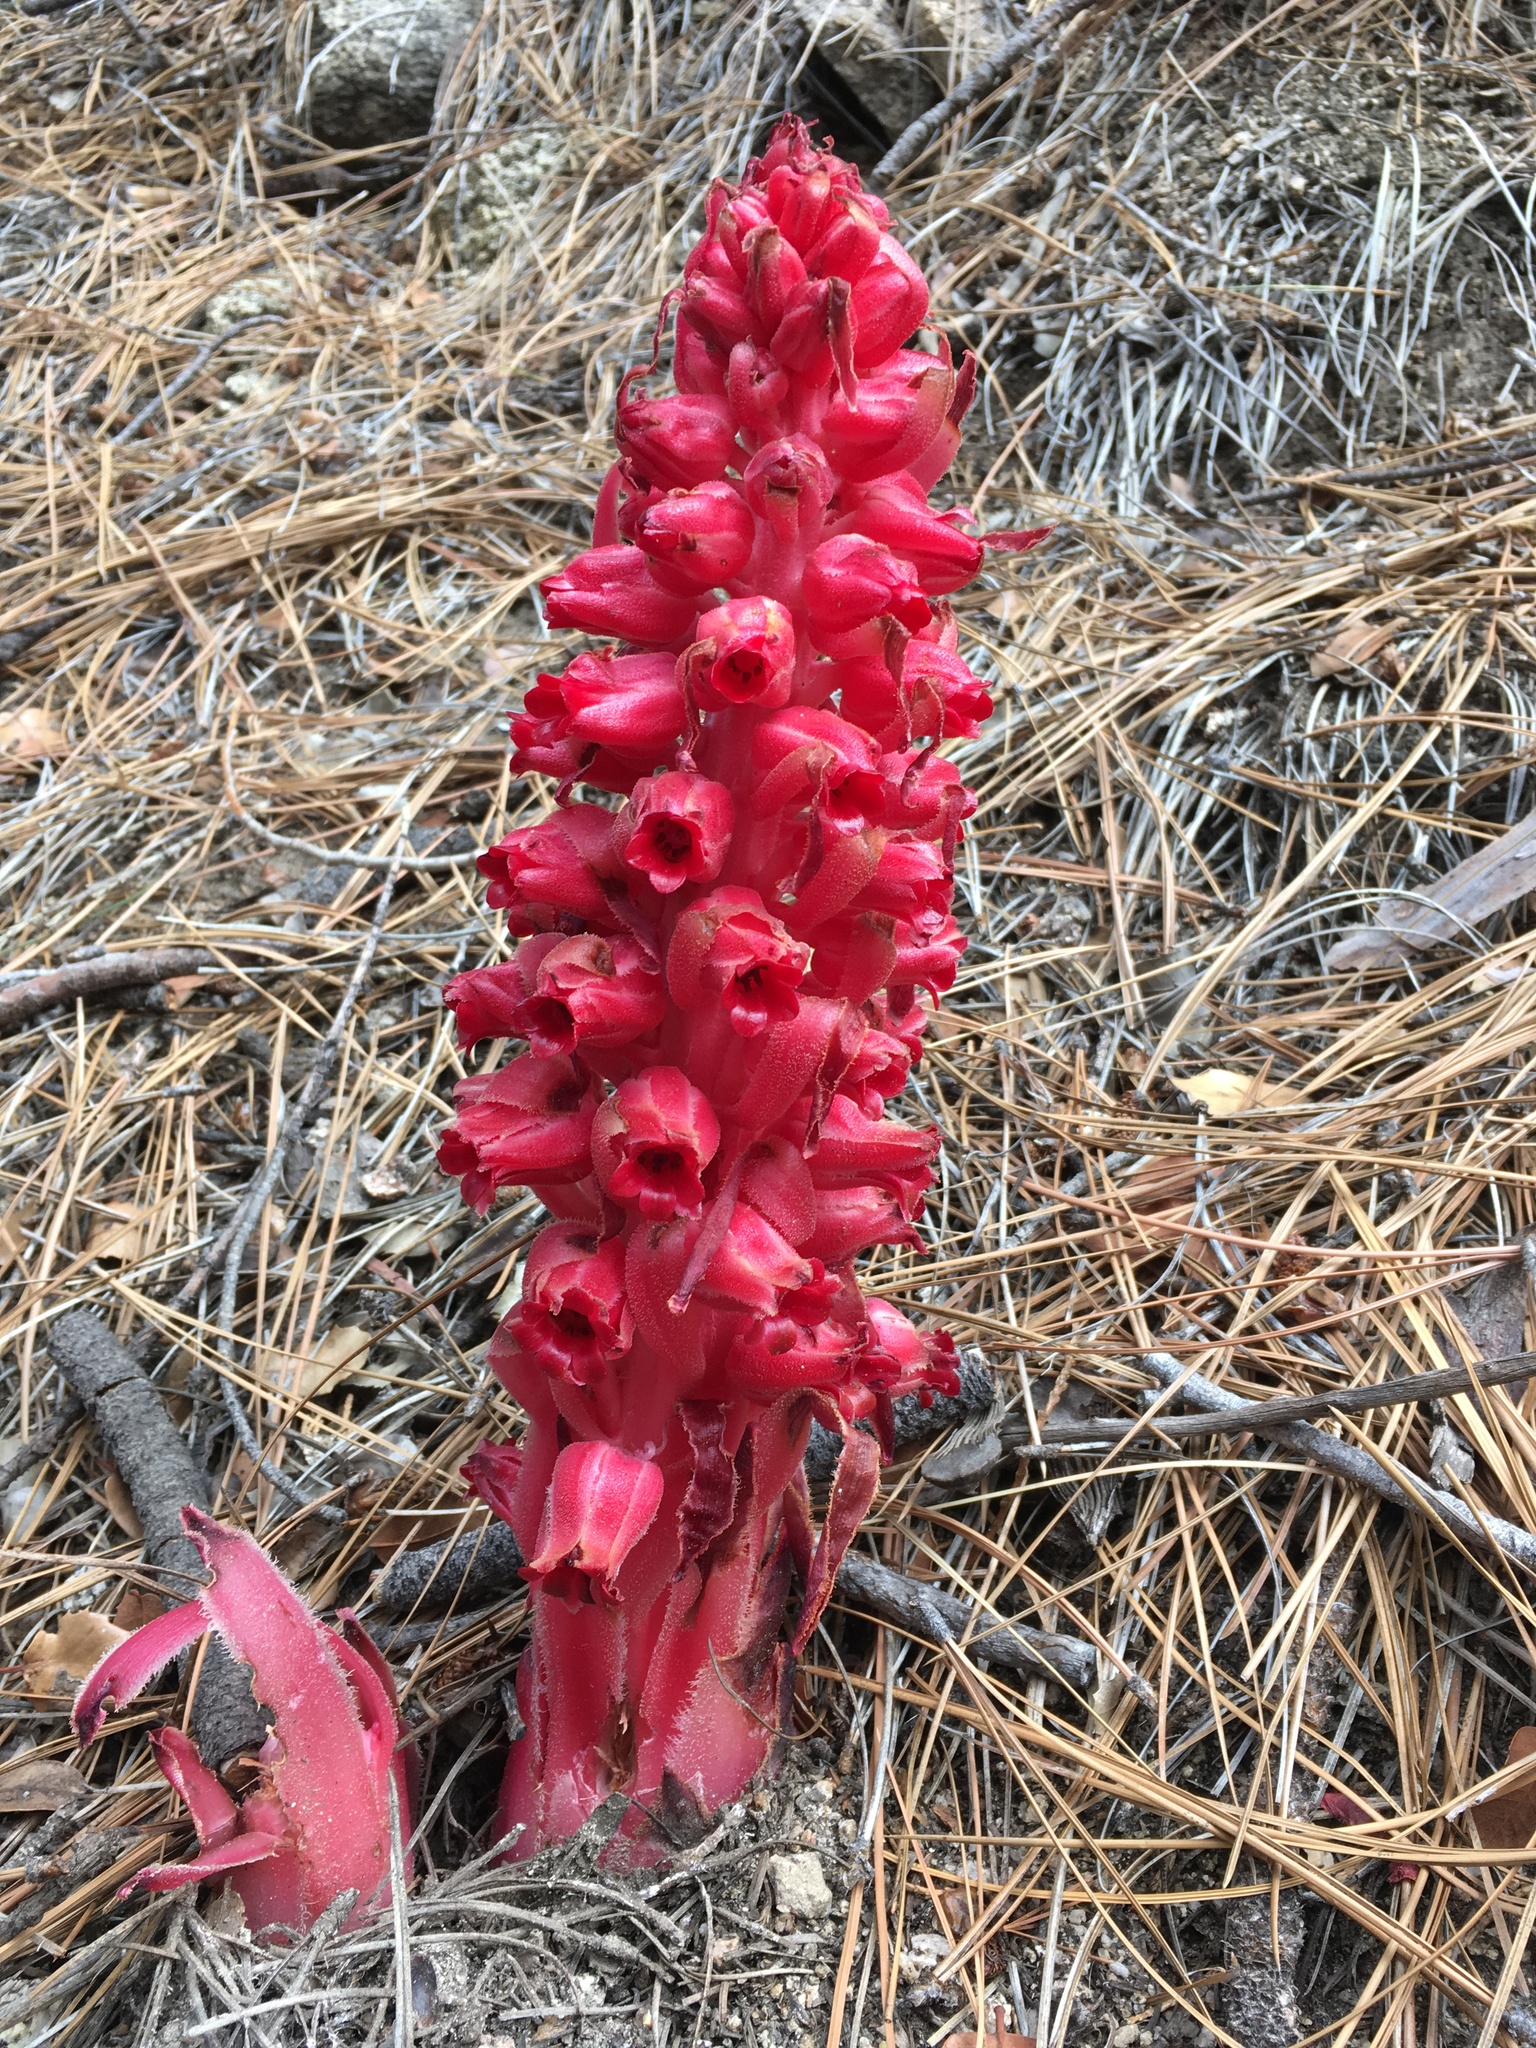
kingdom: Plantae
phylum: Tracheophyta
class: Magnoliopsida
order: Ericales
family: Ericaceae
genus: Sarcodes
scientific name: Sarcodes sanguinea
